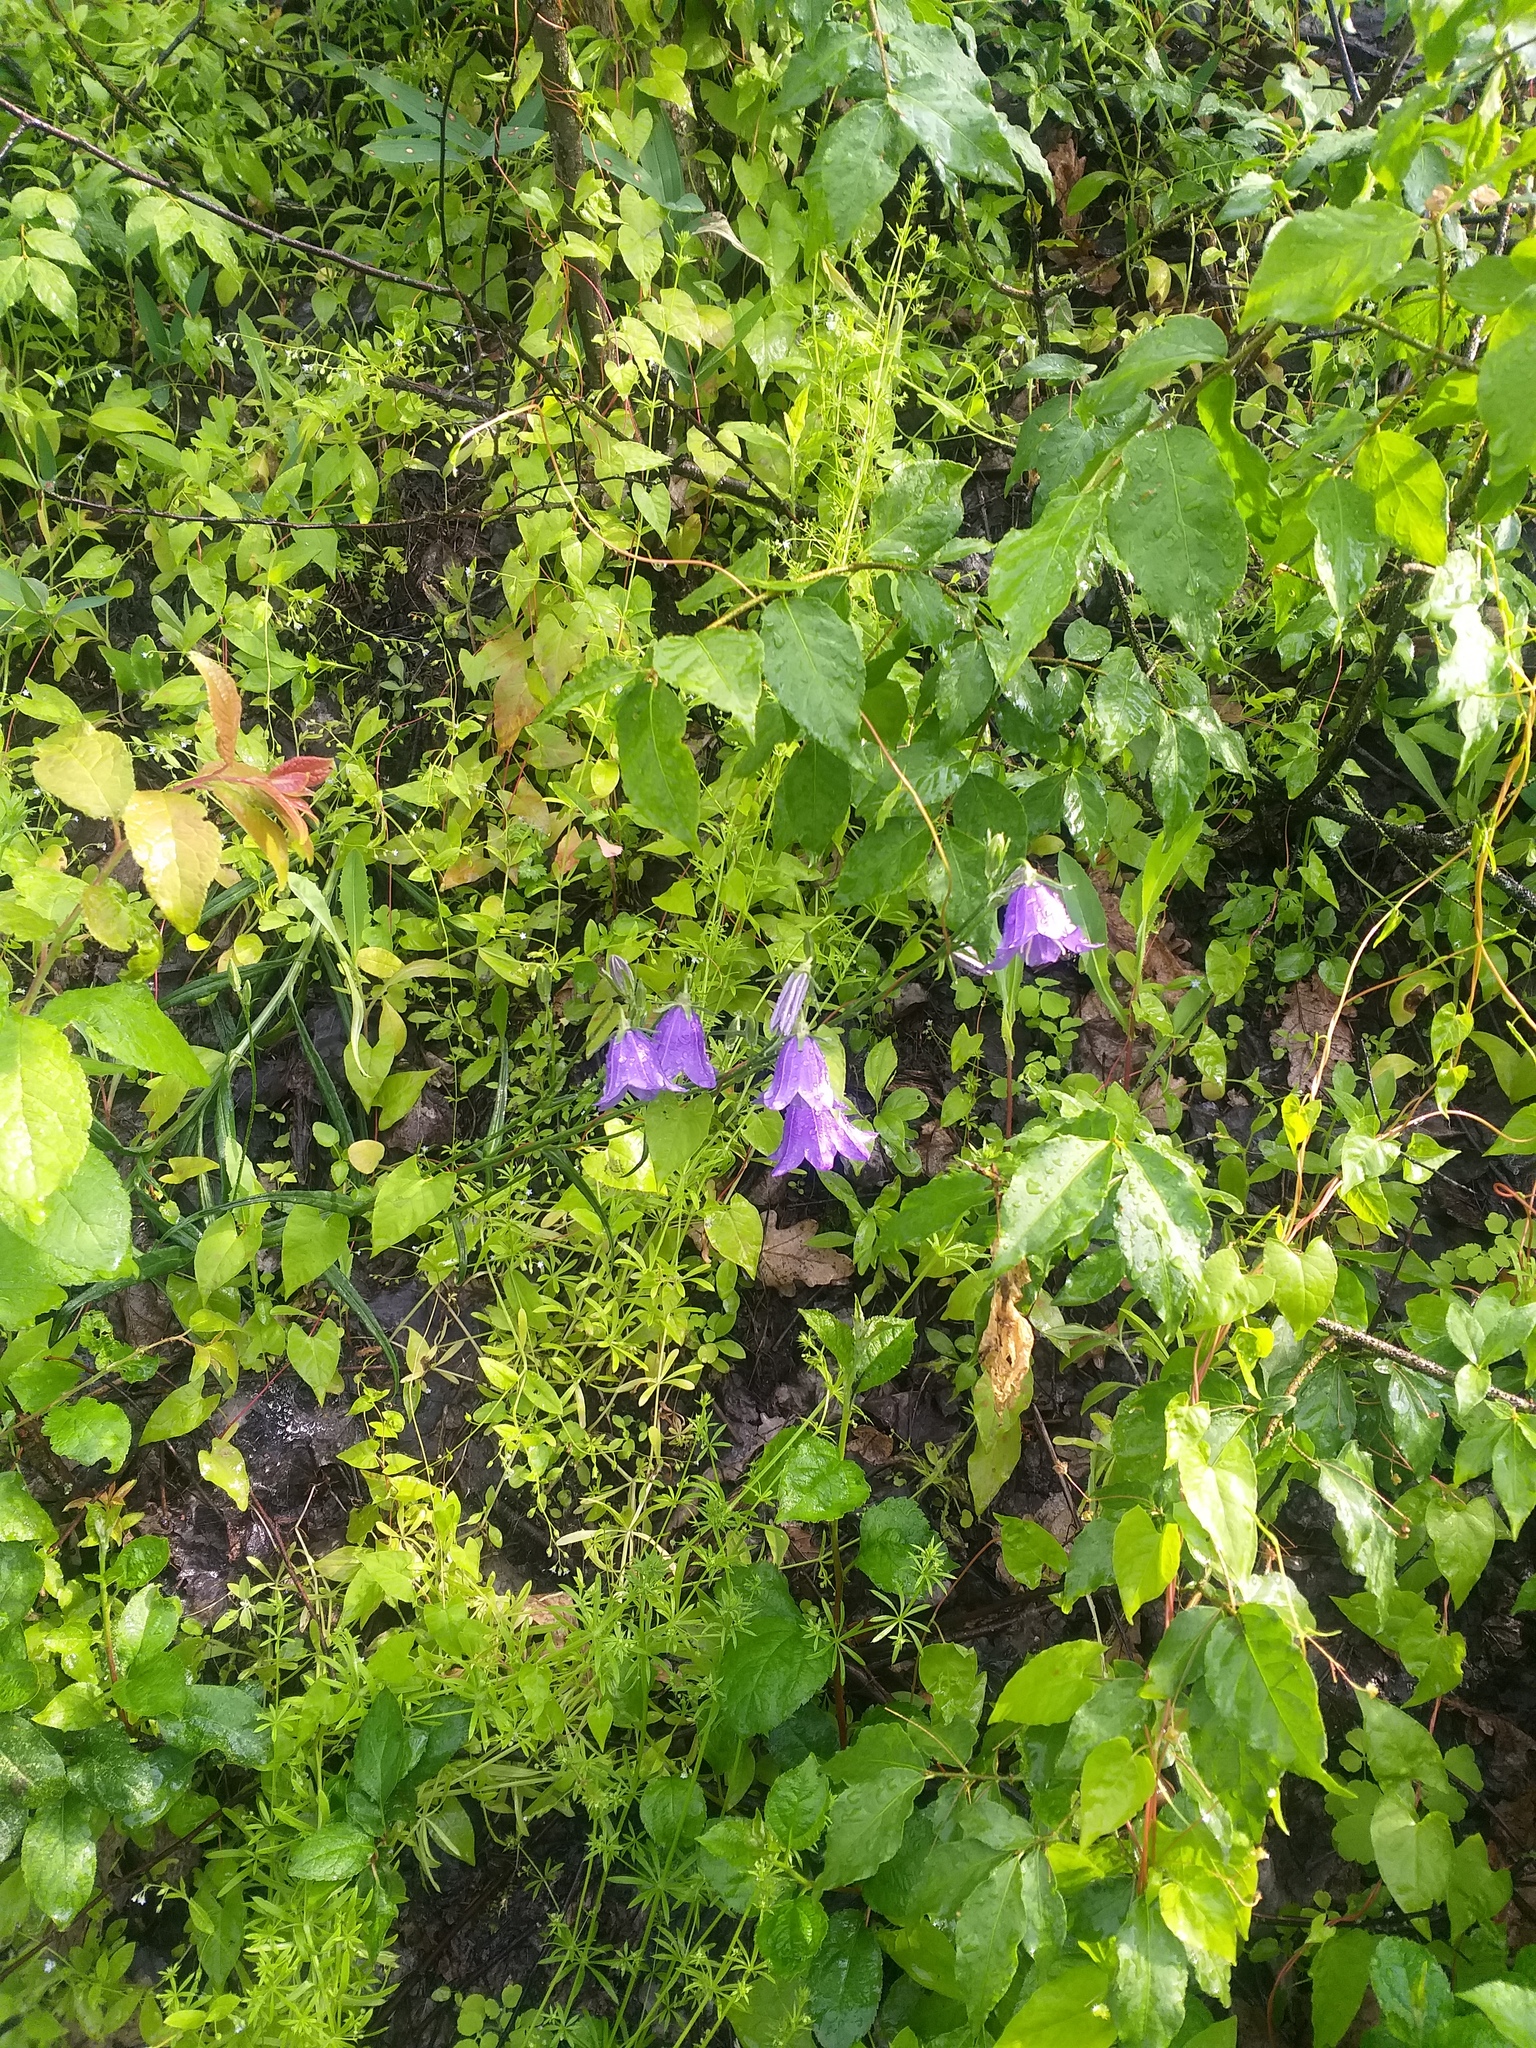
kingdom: Plantae
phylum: Tracheophyta
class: Magnoliopsida
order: Asterales
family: Campanulaceae
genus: Campanula
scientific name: Campanula persicifolia
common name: Peach-leaved bellflower
